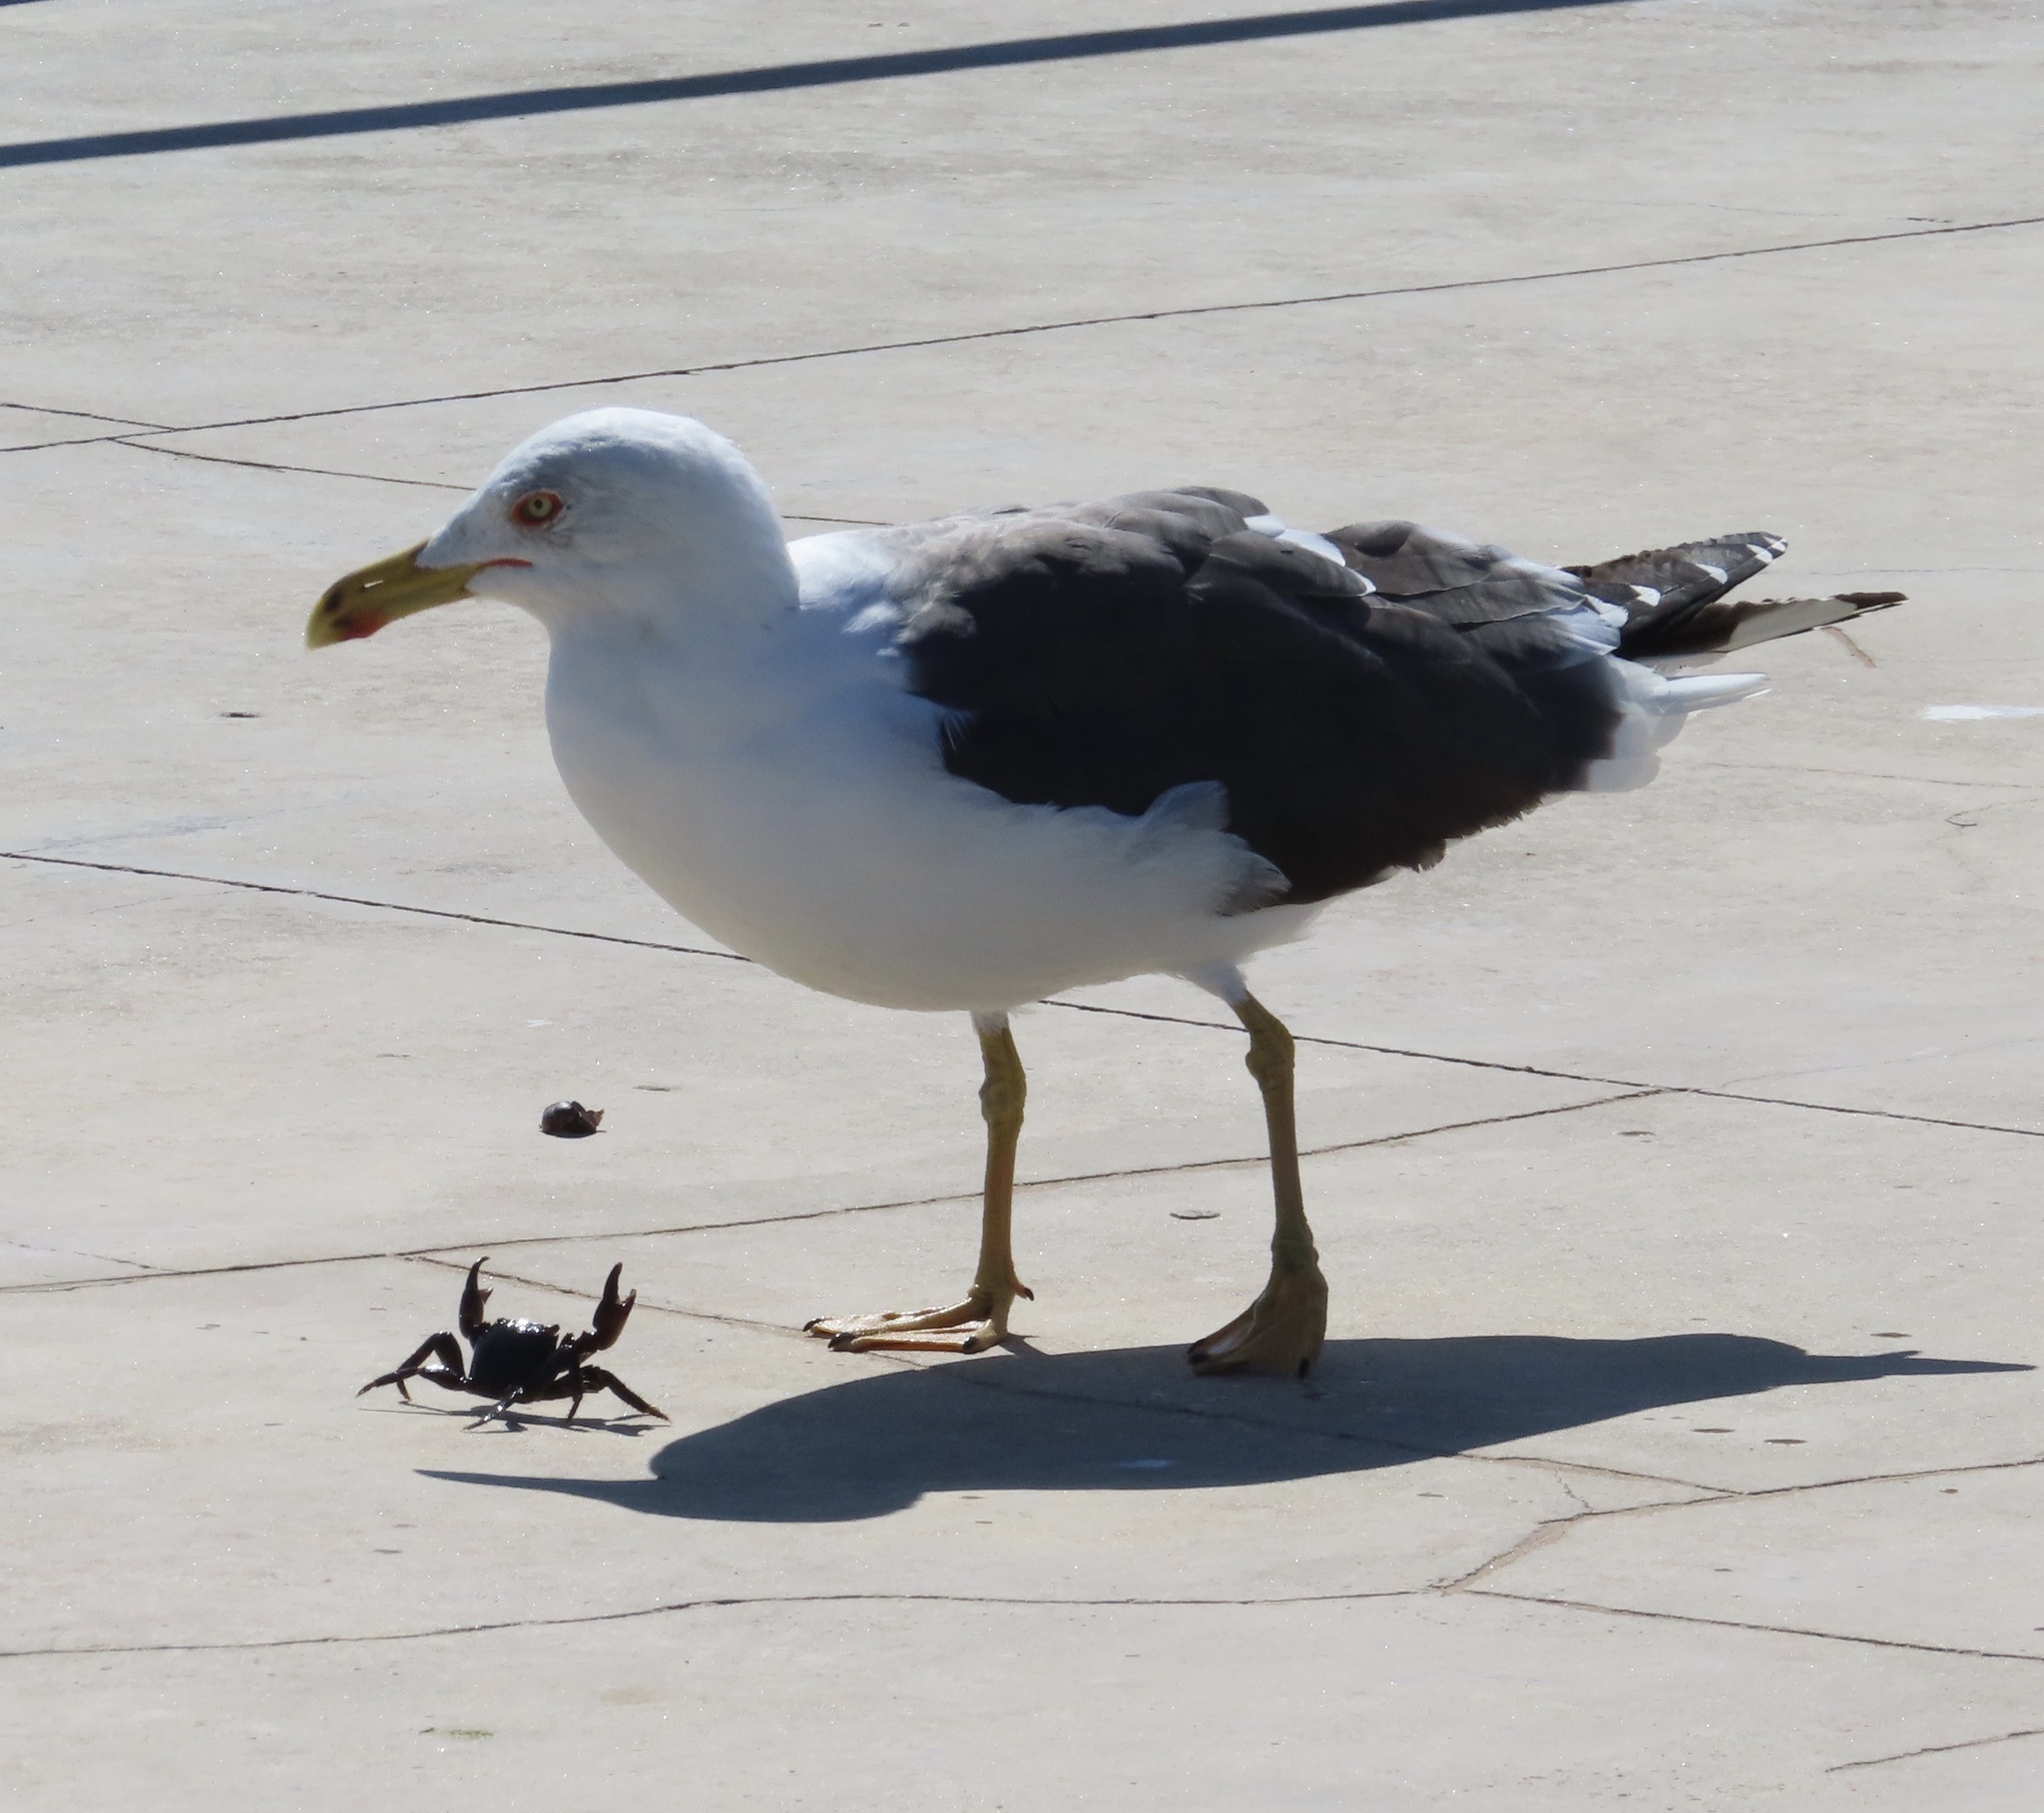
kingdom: Animalia
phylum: Chordata
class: Aves
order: Charadriiformes
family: Laridae
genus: Larus
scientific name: Larus fuscus
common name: Lesser black-backed gull
